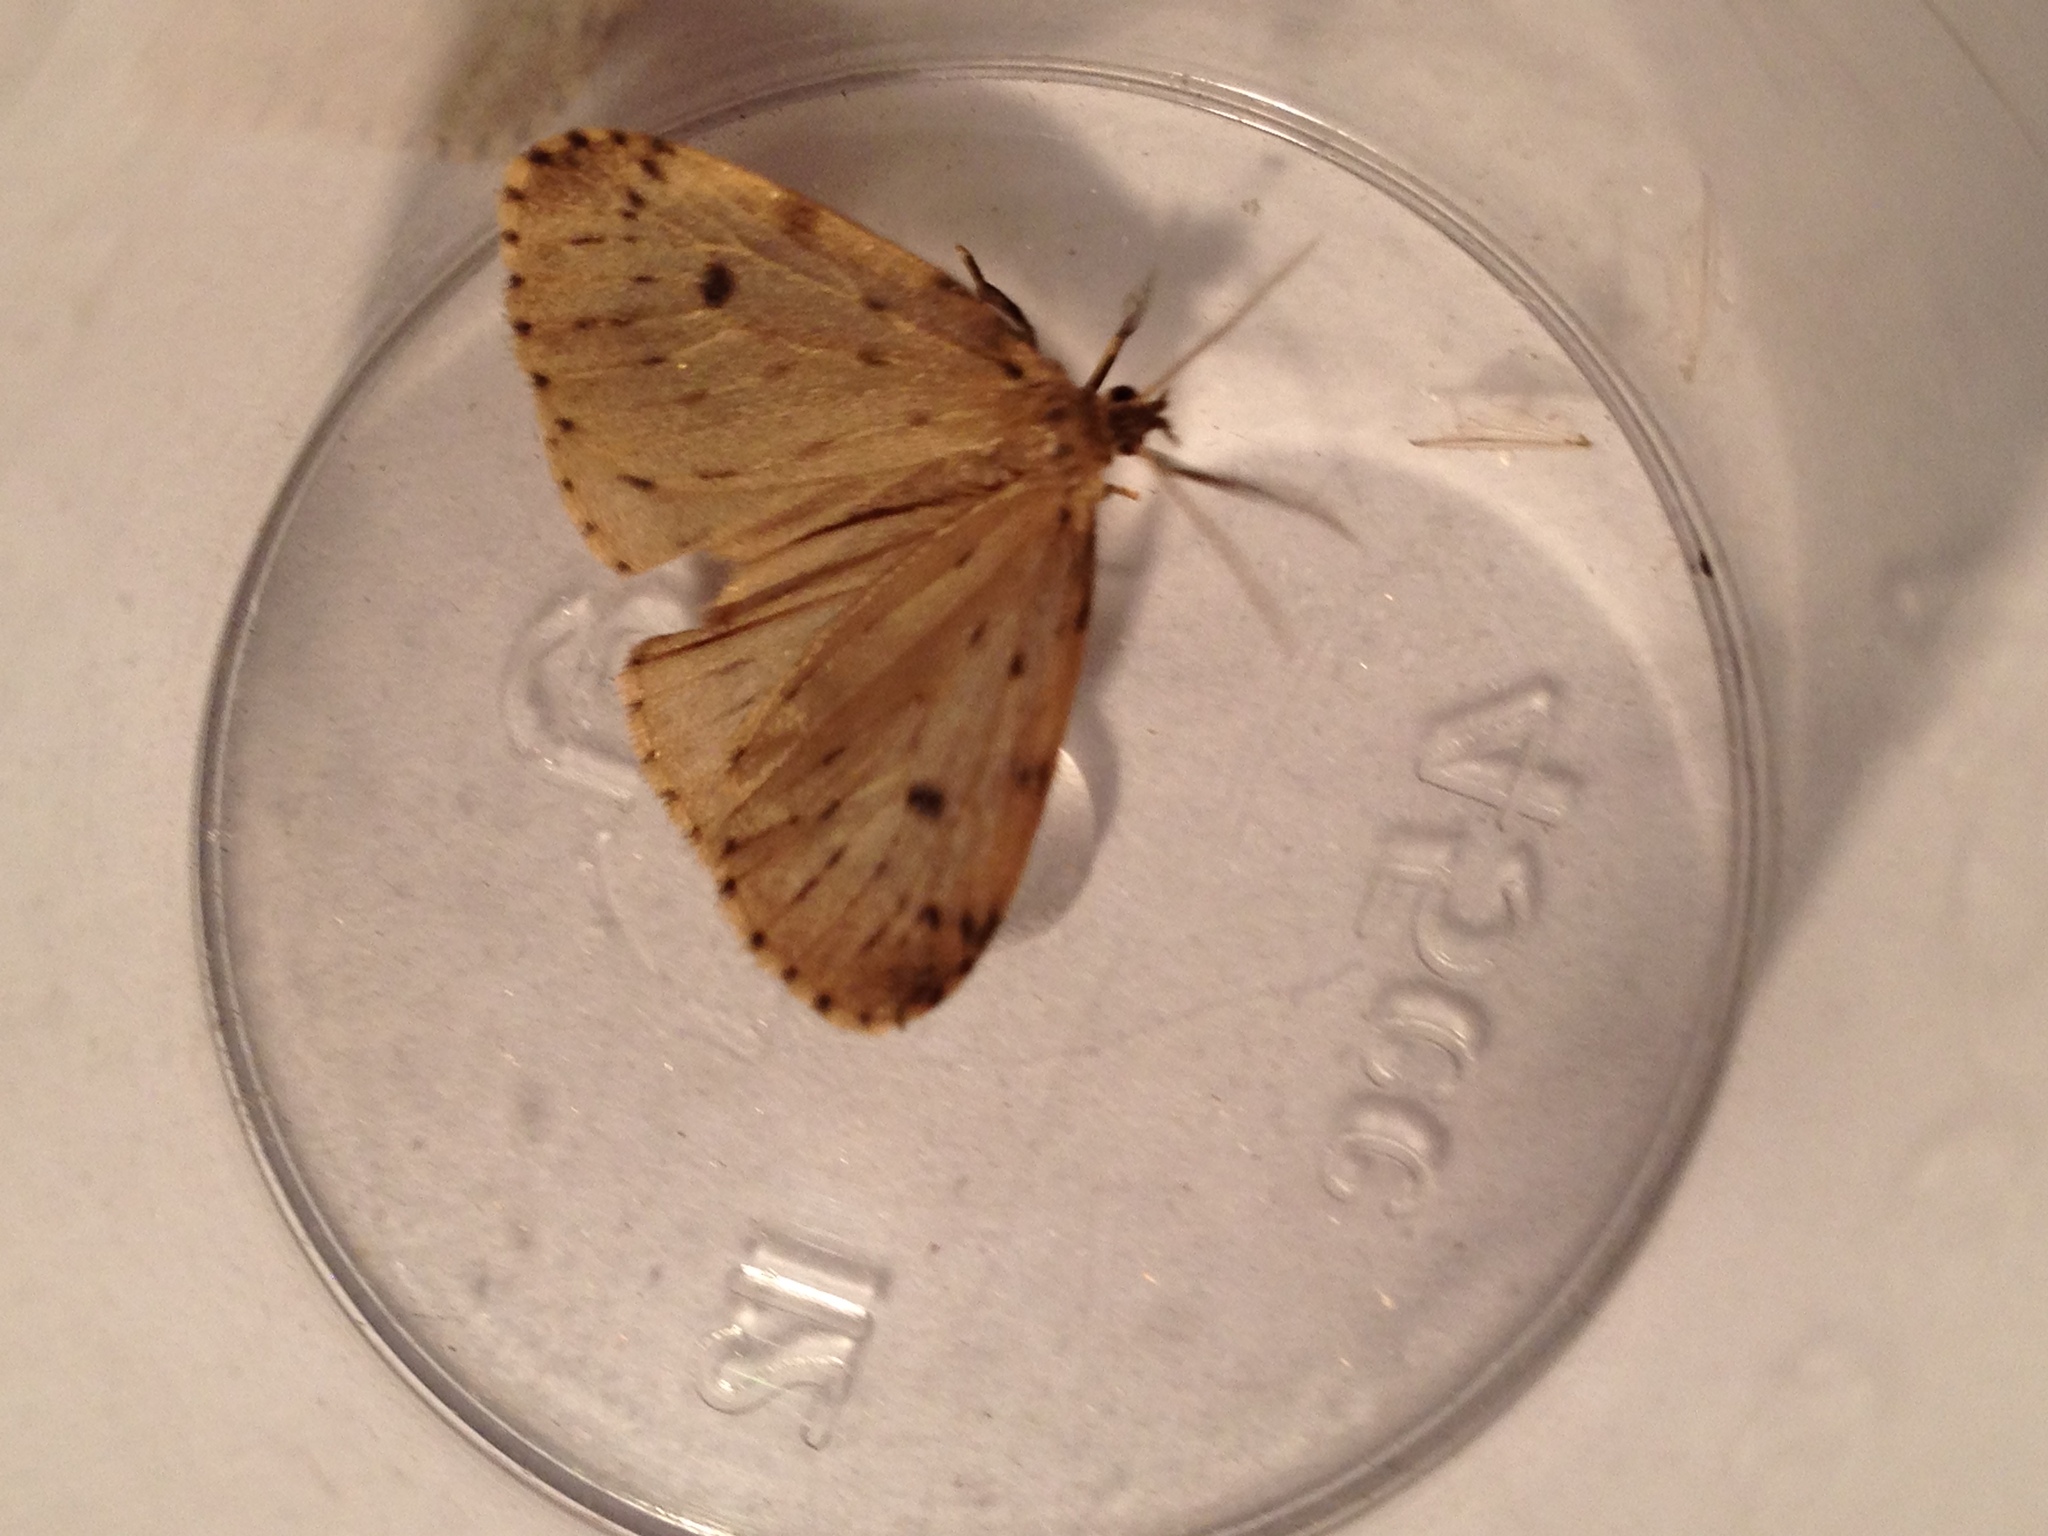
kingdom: Animalia
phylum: Arthropoda
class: Insecta
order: Lepidoptera
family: Erebidae
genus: Thumatha
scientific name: Thumatha senex
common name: Round-winged muslin
